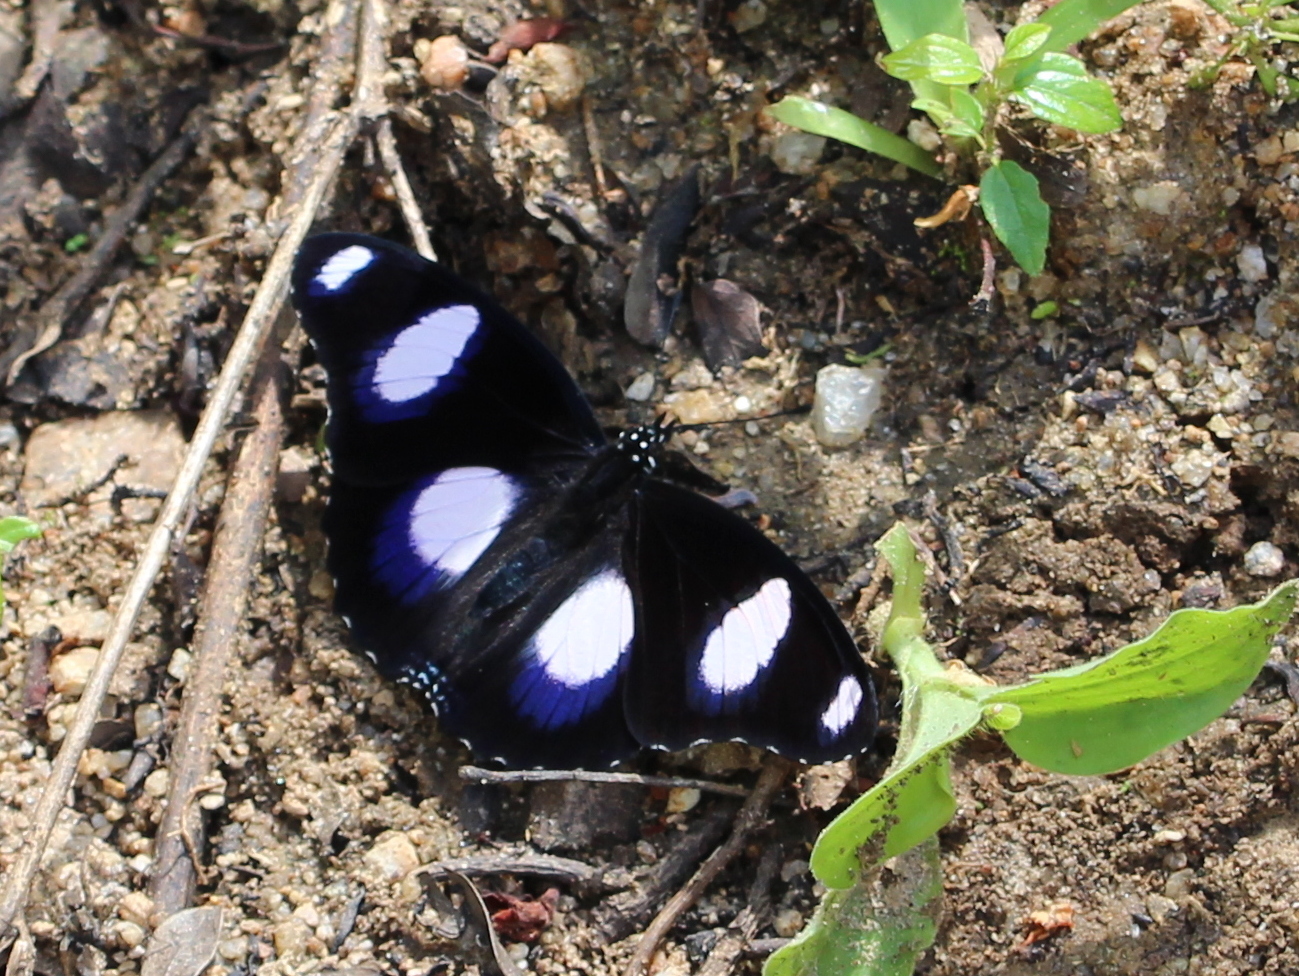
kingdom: Animalia
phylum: Arthropoda
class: Insecta
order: Lepidoptera
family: Nymphalidae
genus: Hypolimnas
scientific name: Hypolimnas misippus
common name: False plain tiger
